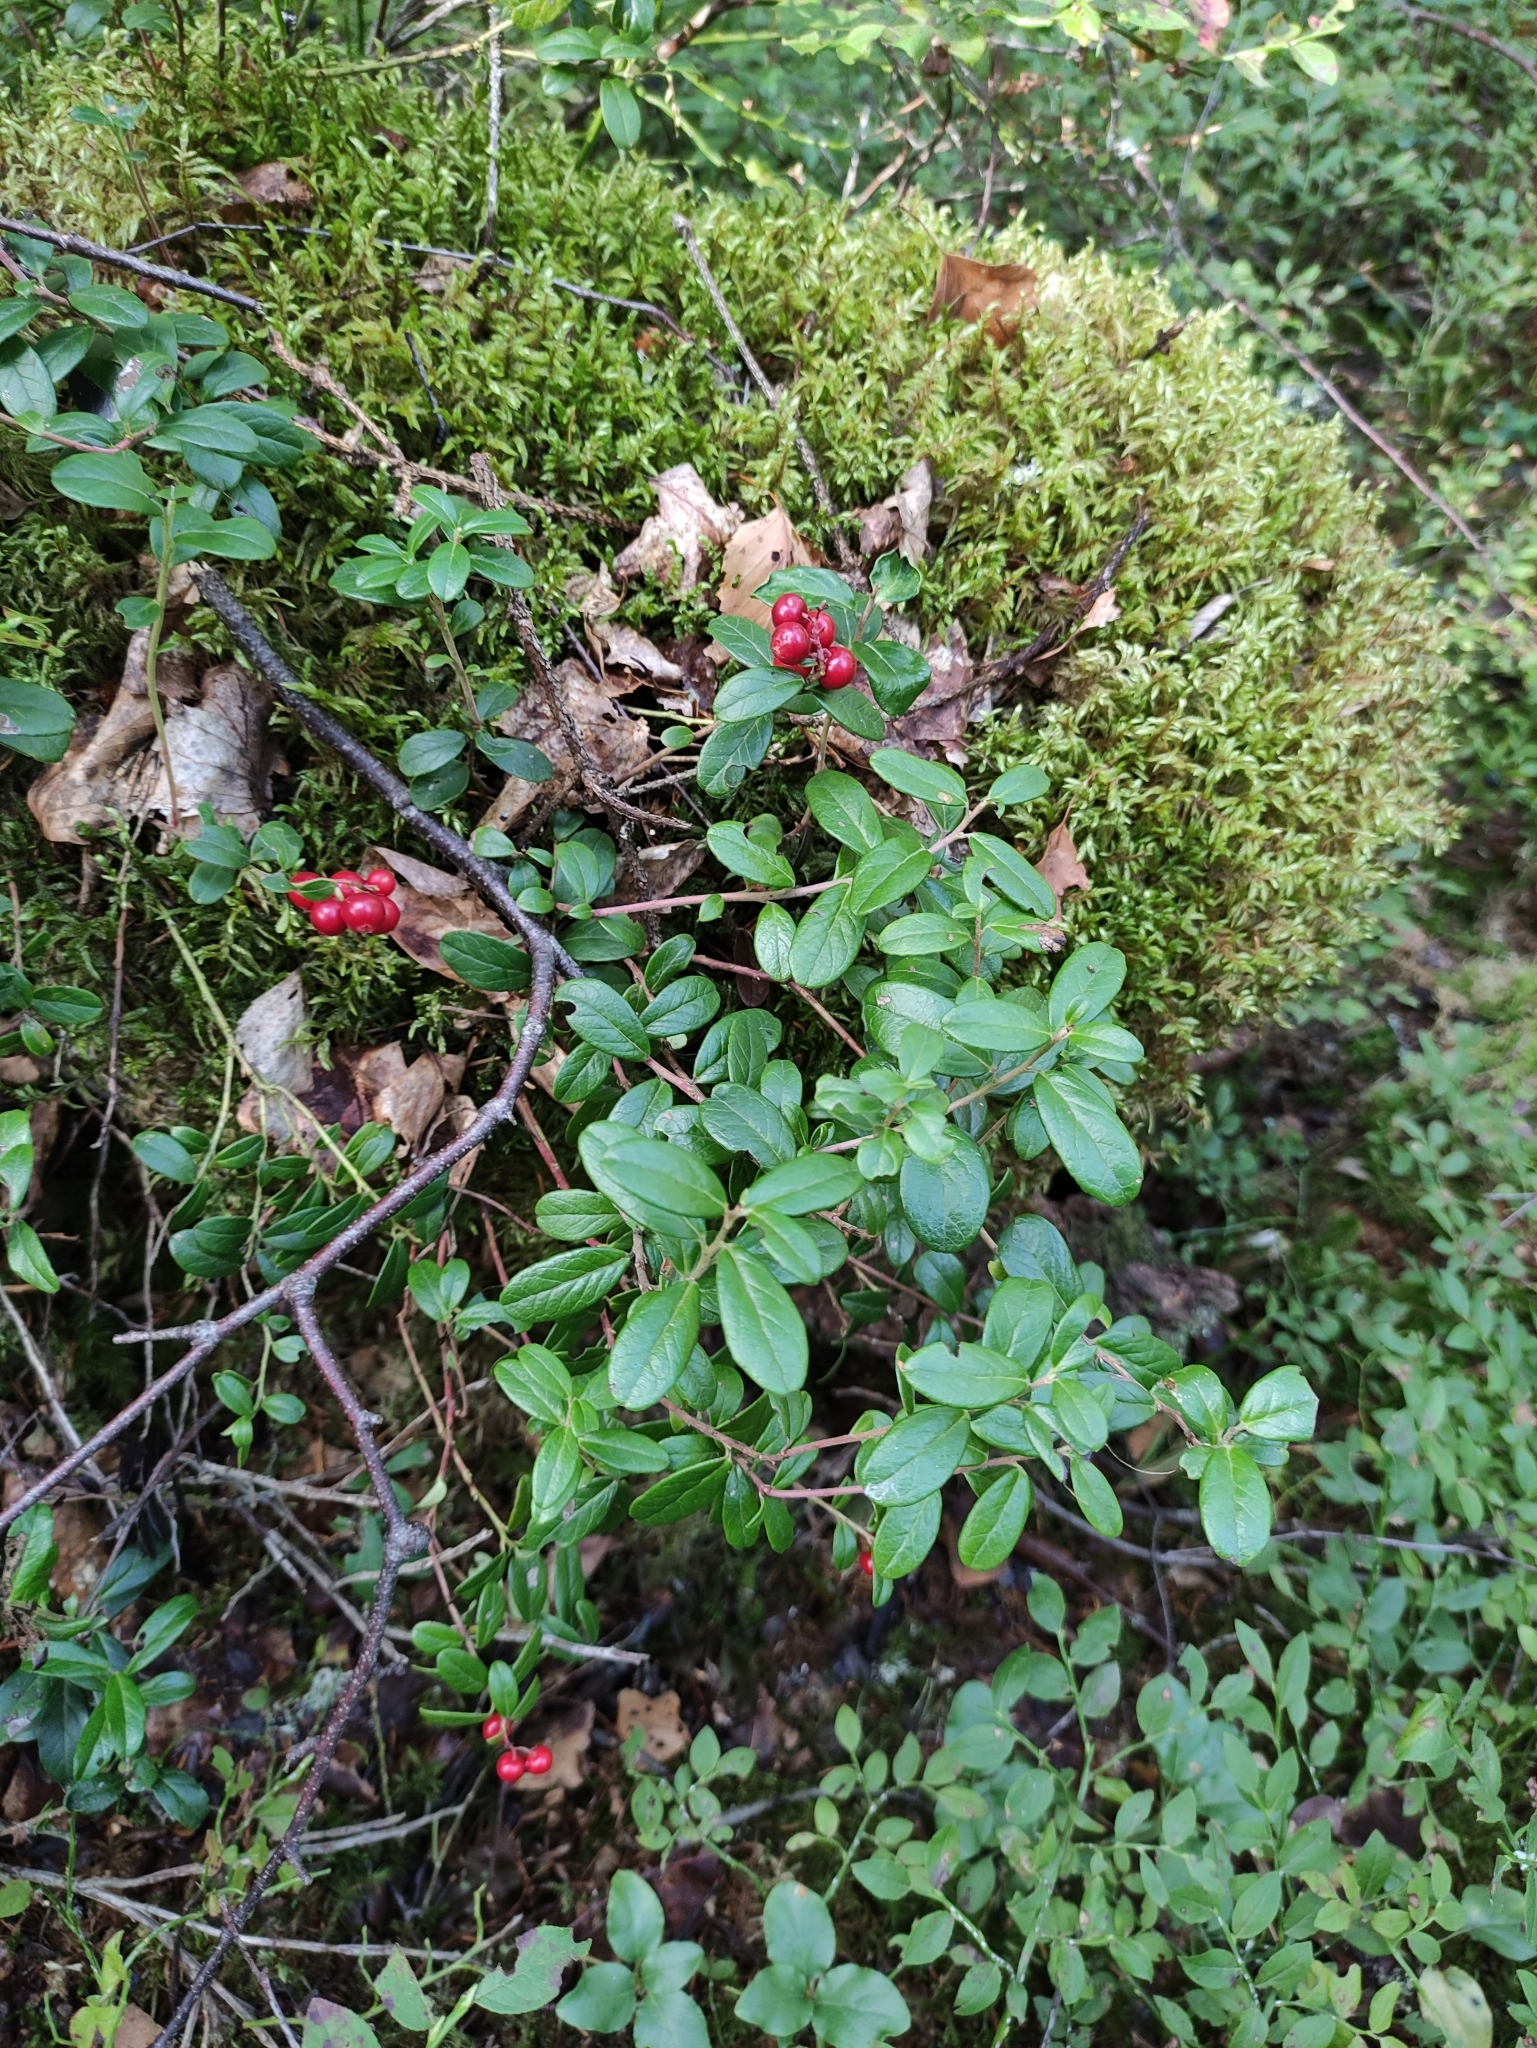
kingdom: Plantae
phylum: Tracheophyta
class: Magnoliopsida
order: Ericales
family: Ericaceae
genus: Vaccinium
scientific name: Vaccinium vitis-idaea
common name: Cowberry
